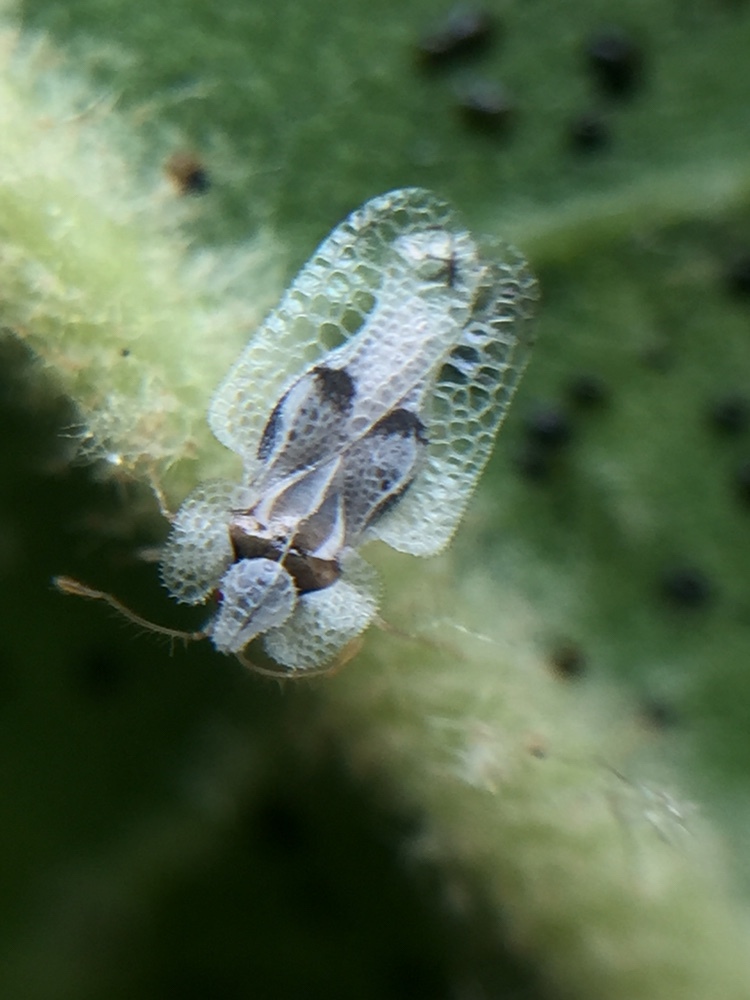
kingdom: Animalia
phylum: Arthropoda
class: Insecta
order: Hemiptera
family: Tingidae
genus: Corythucha
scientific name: Corythucha ciliata
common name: Sycamore lace bug
